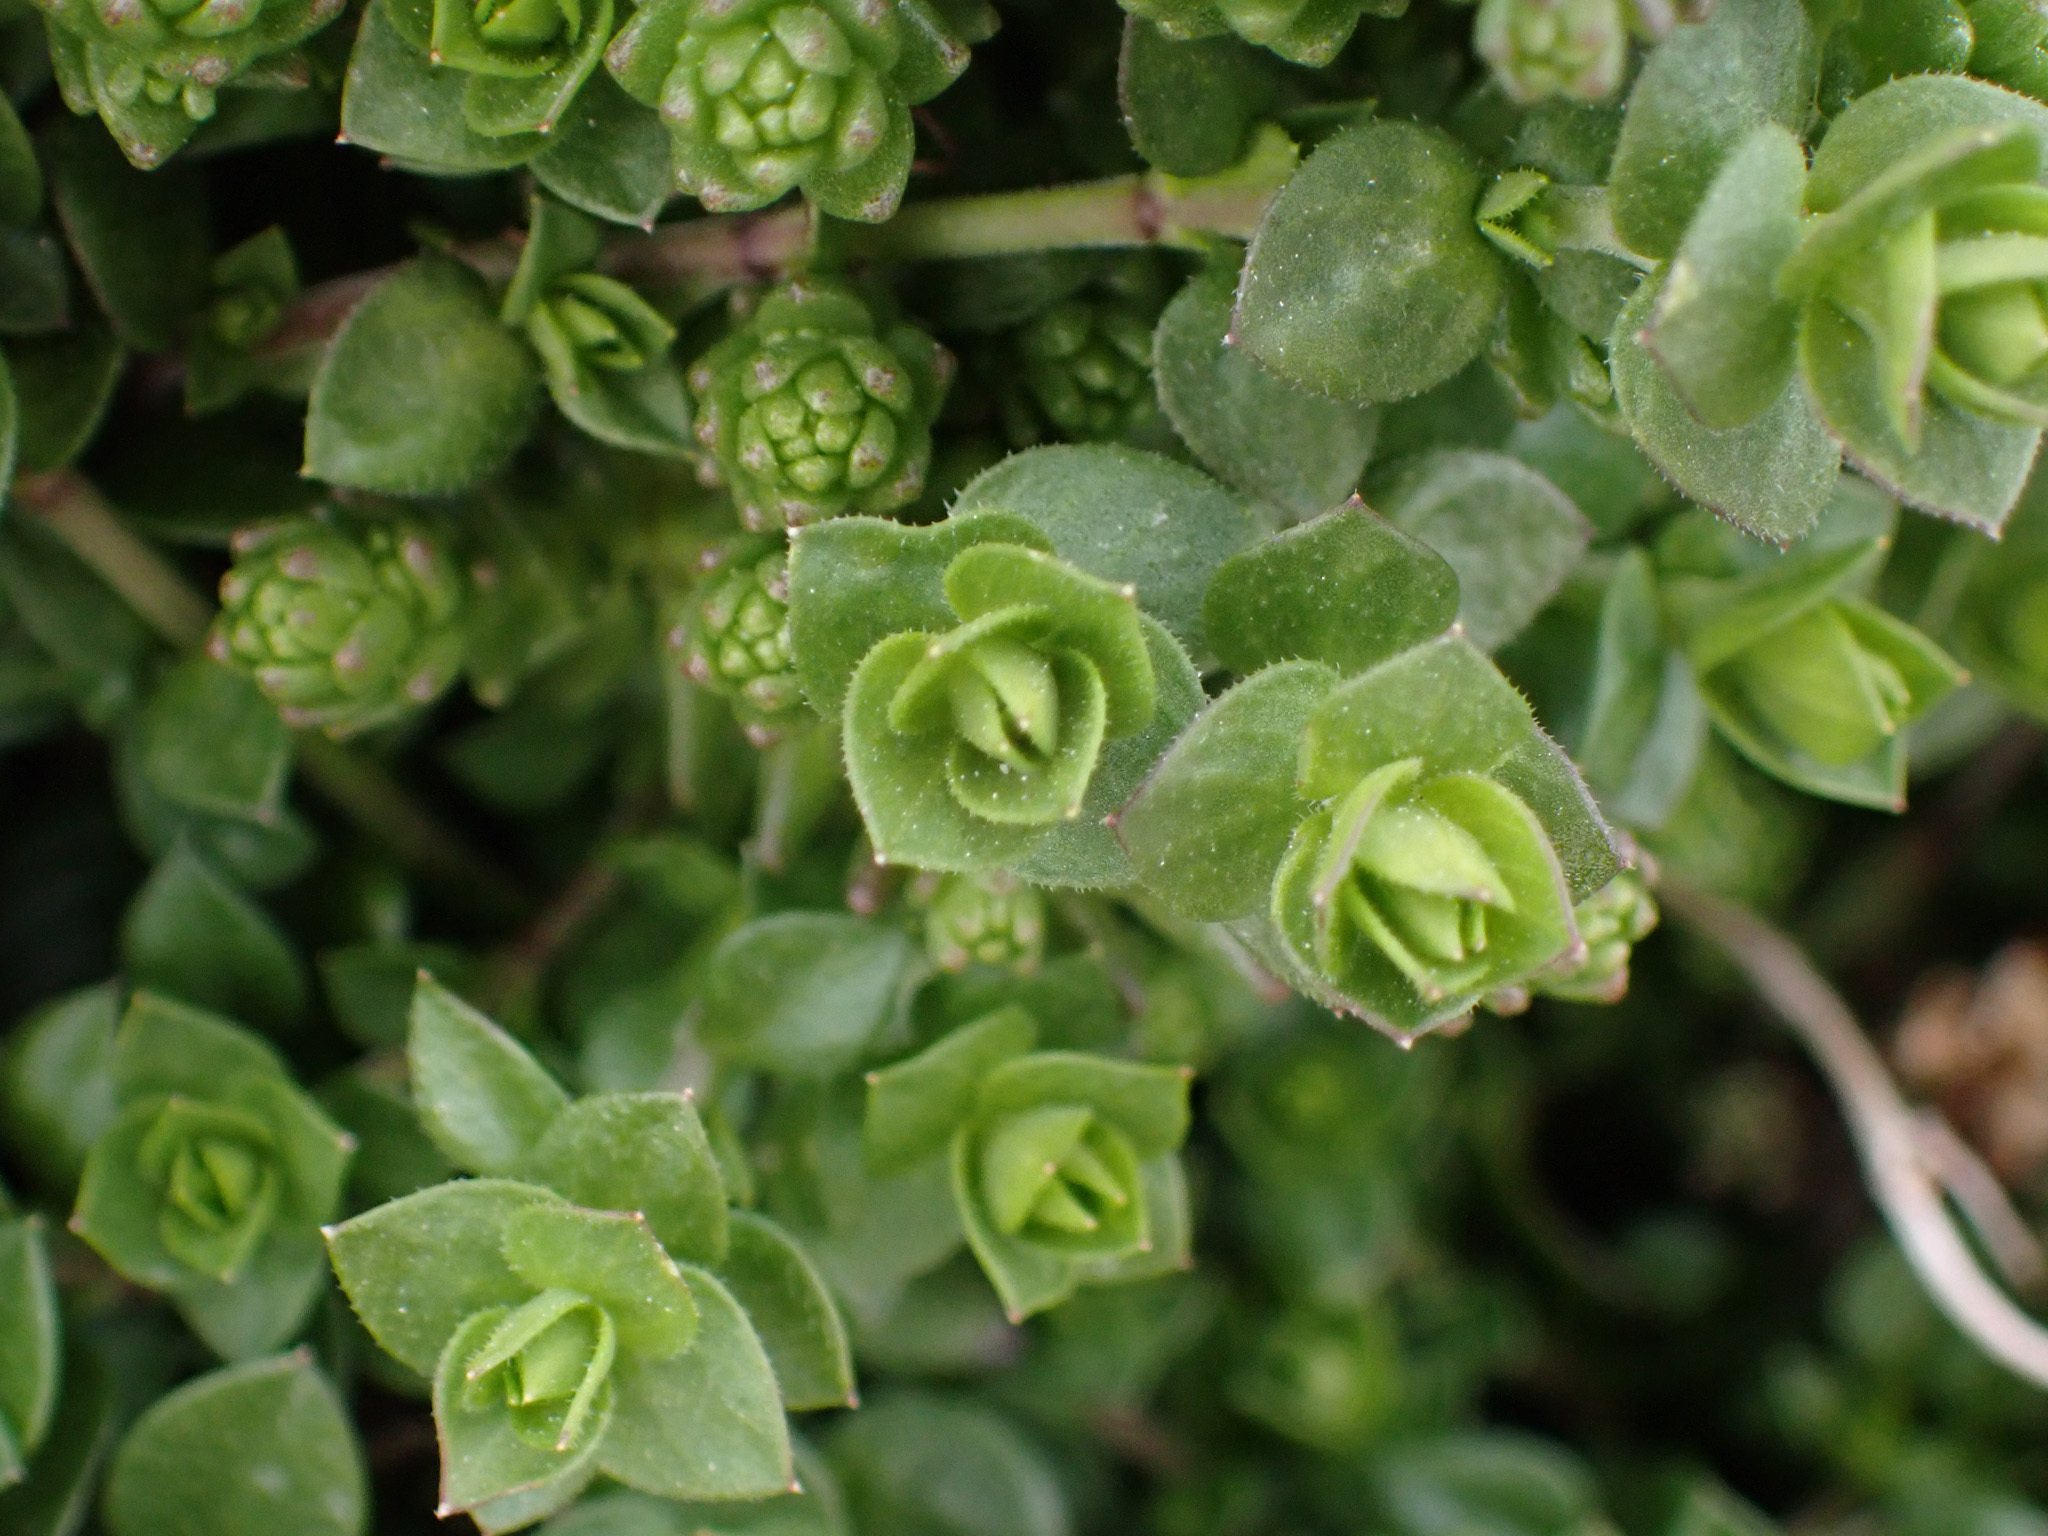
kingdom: Plantae
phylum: Tracheophyta
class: Magnoliopsida
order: Saxifragales
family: Crassulaceae
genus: Sedum
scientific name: Sedum acre
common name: Biting stonecrop
